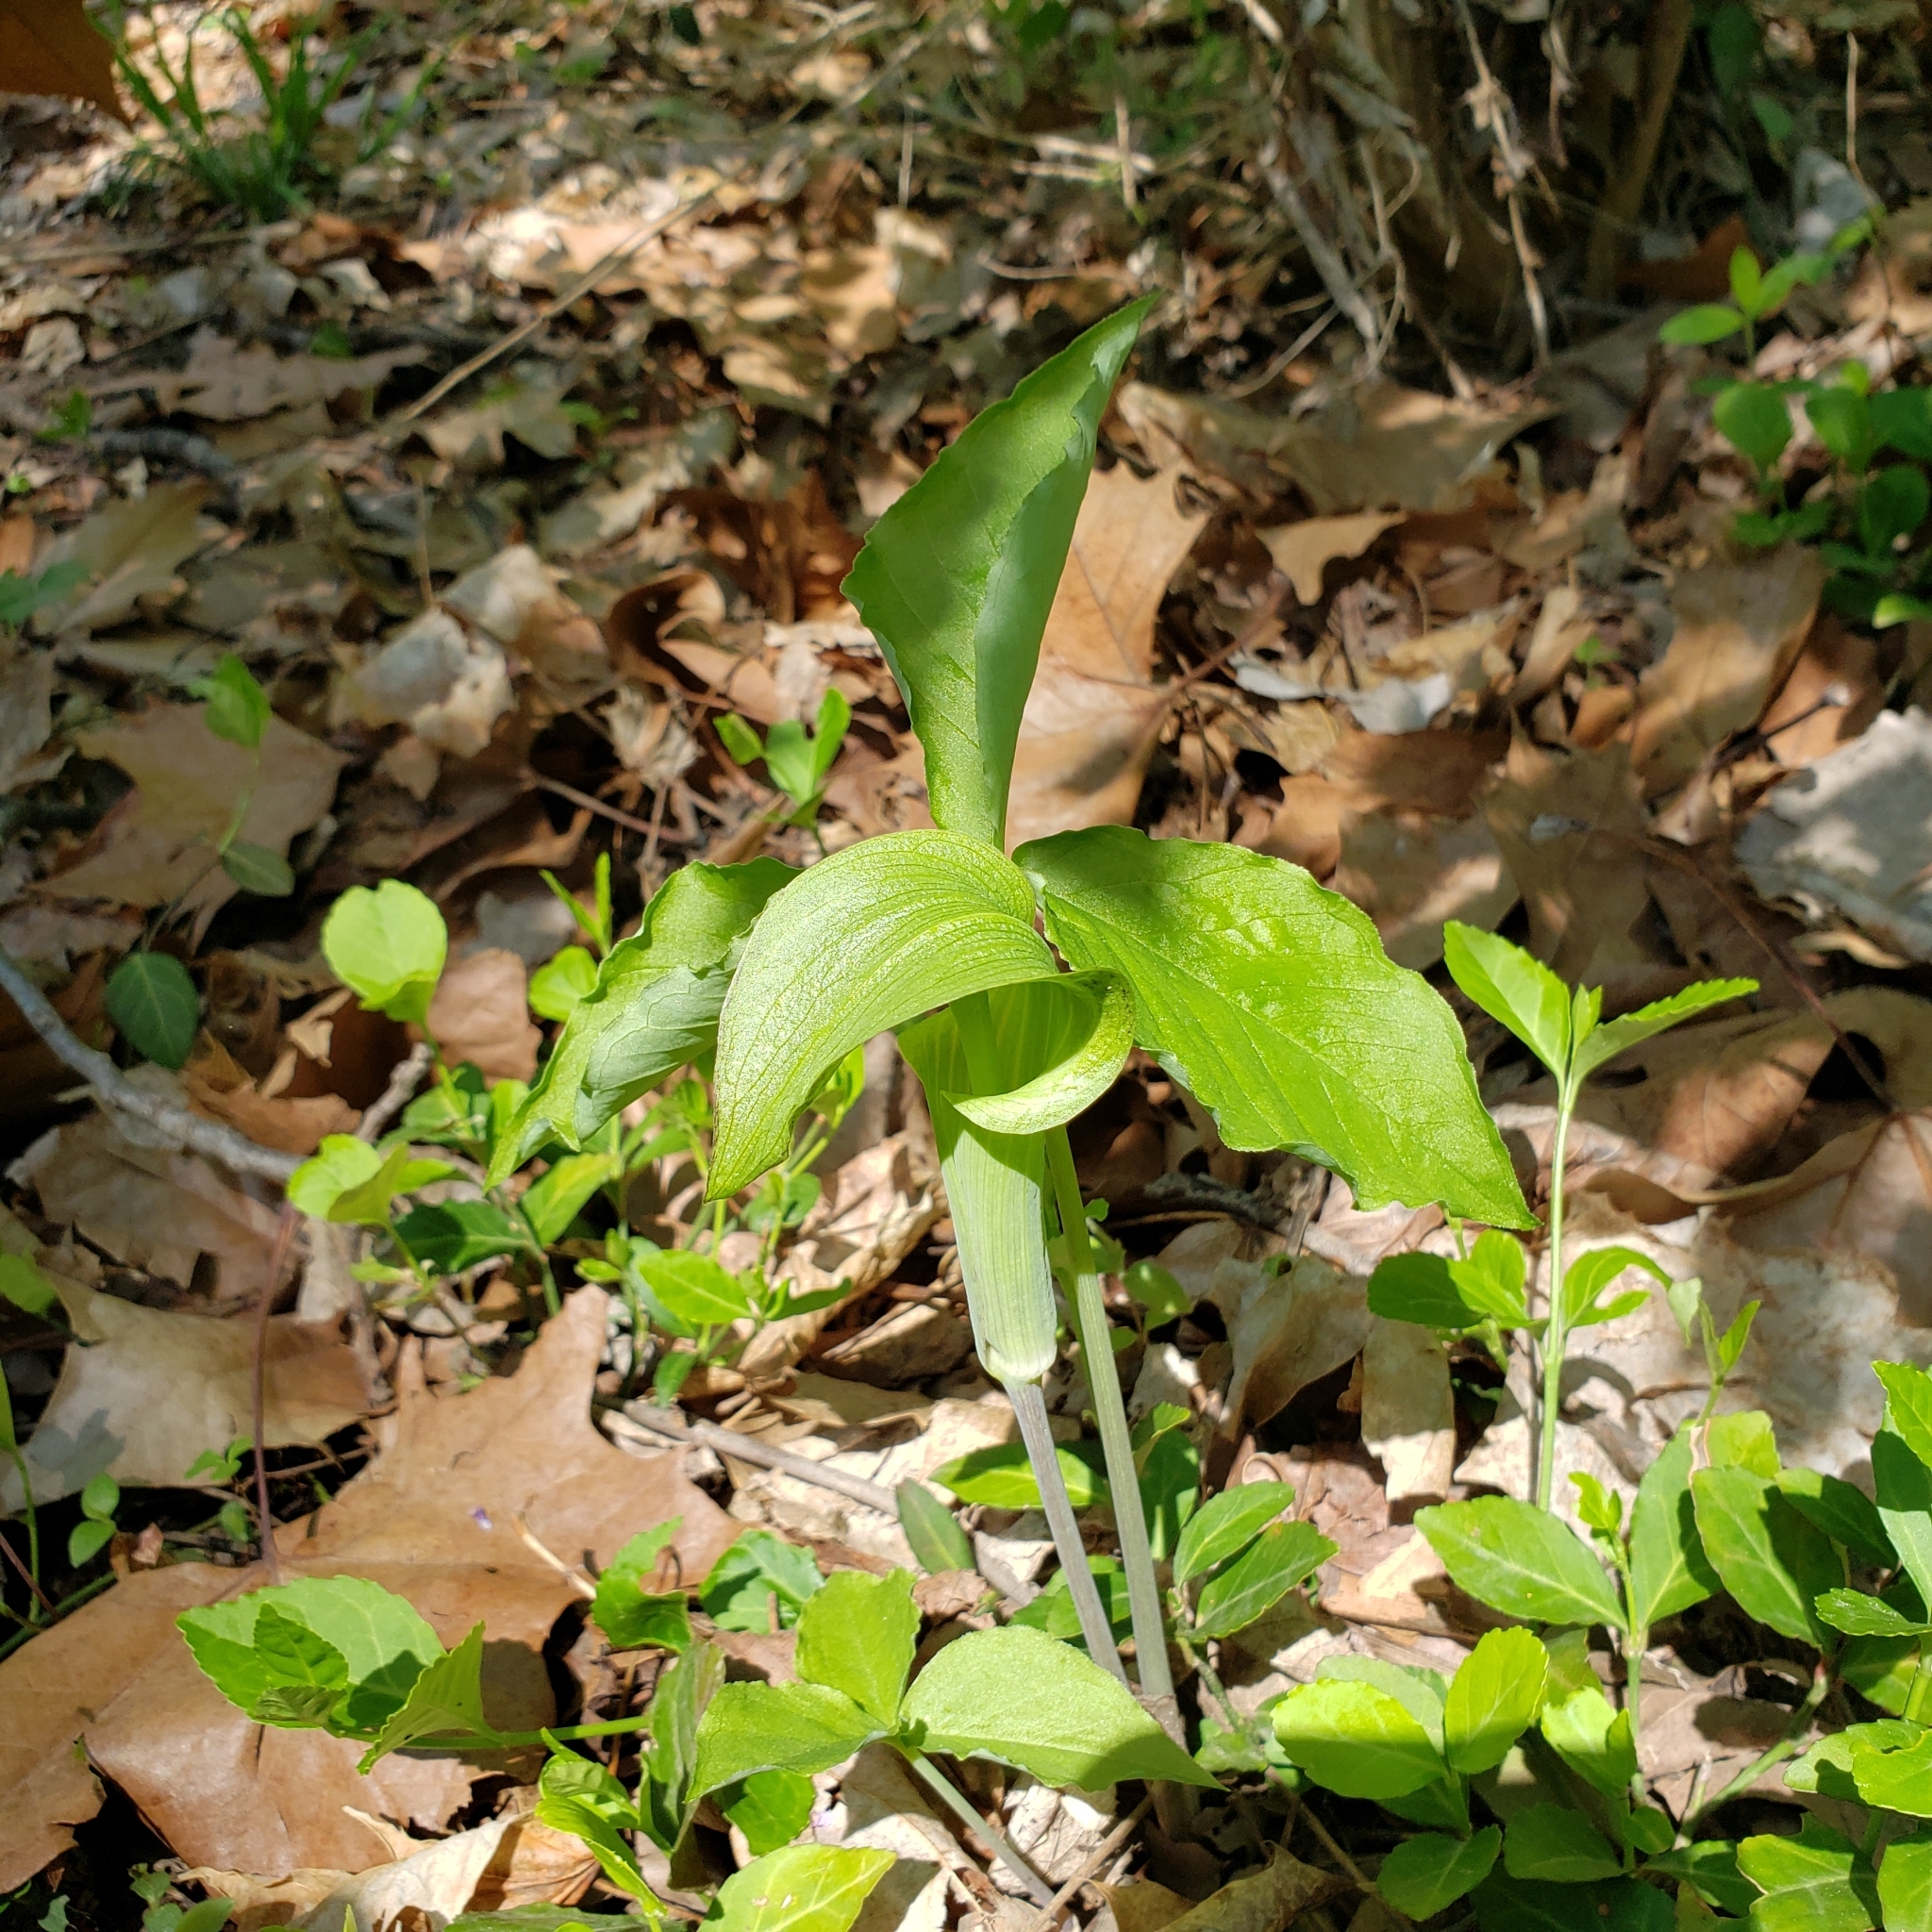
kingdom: Plantae
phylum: Tracheophyta
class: Liliopsida
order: Alismatales
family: Araceae
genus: Arisaema
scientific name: Arisaema triphyllum
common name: Jack-in-the-pulpit
